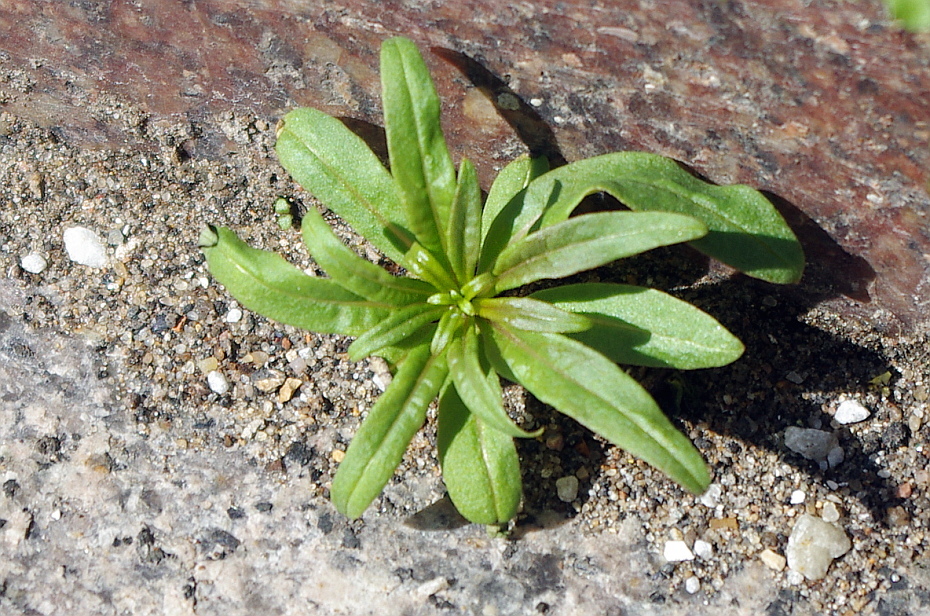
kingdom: Plantae
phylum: Tracheophyta
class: Magnoliopsida
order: Myrtales
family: Onagraceae
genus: Chamaenerion
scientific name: Chamaenerion angustifolium
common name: Fireweed
